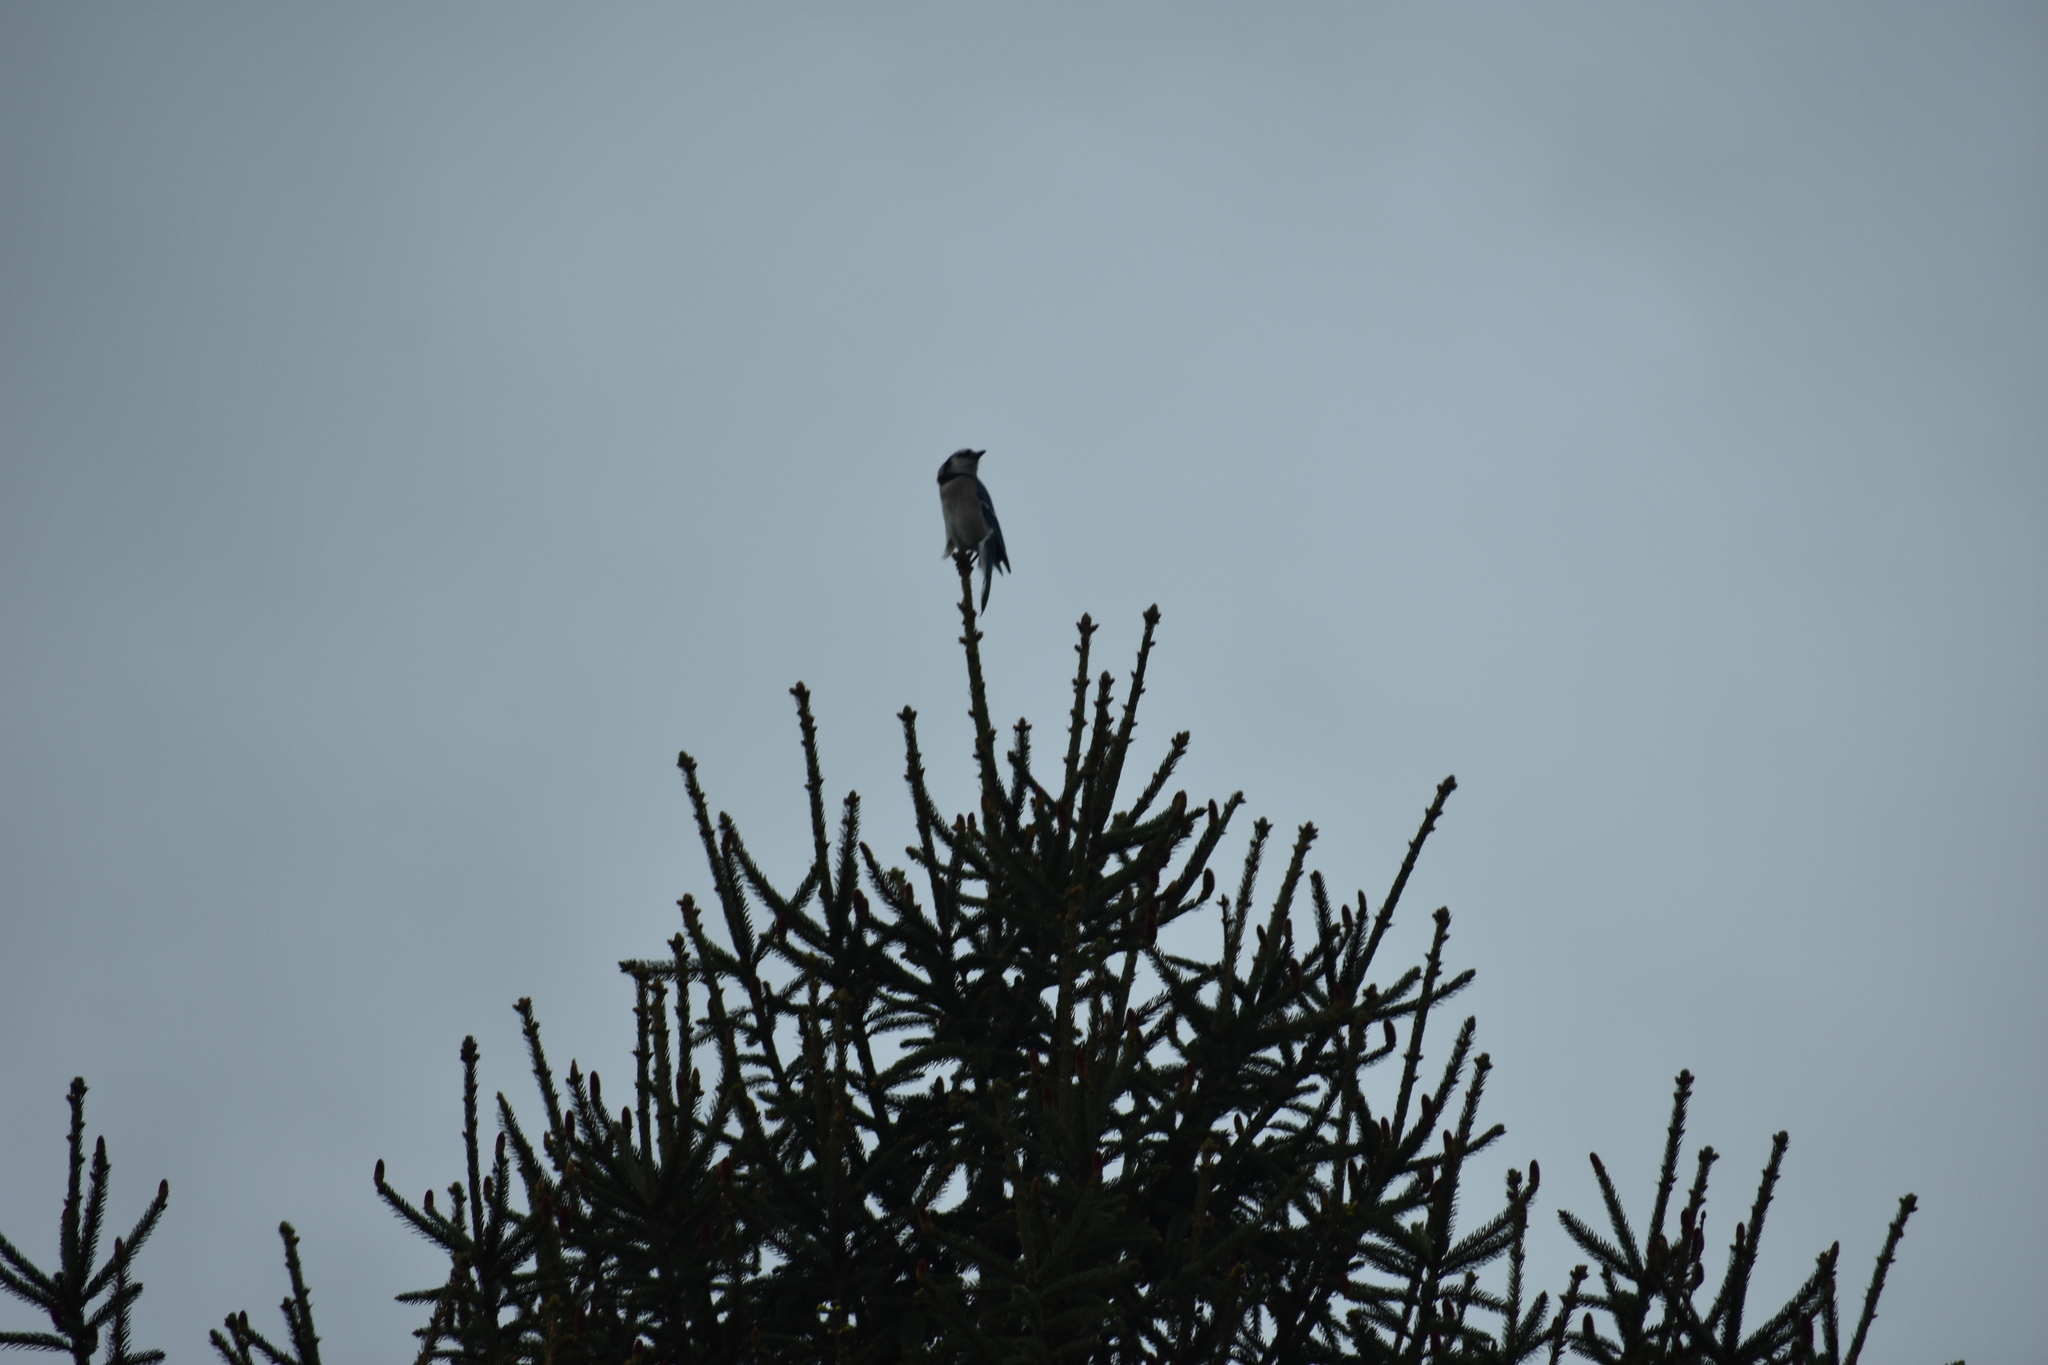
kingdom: Animalia
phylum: Chordata
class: Aves
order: Passeriformes
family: Corvidae
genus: Cyanocitta
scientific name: Cyanocitta cristata
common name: Blue jay
